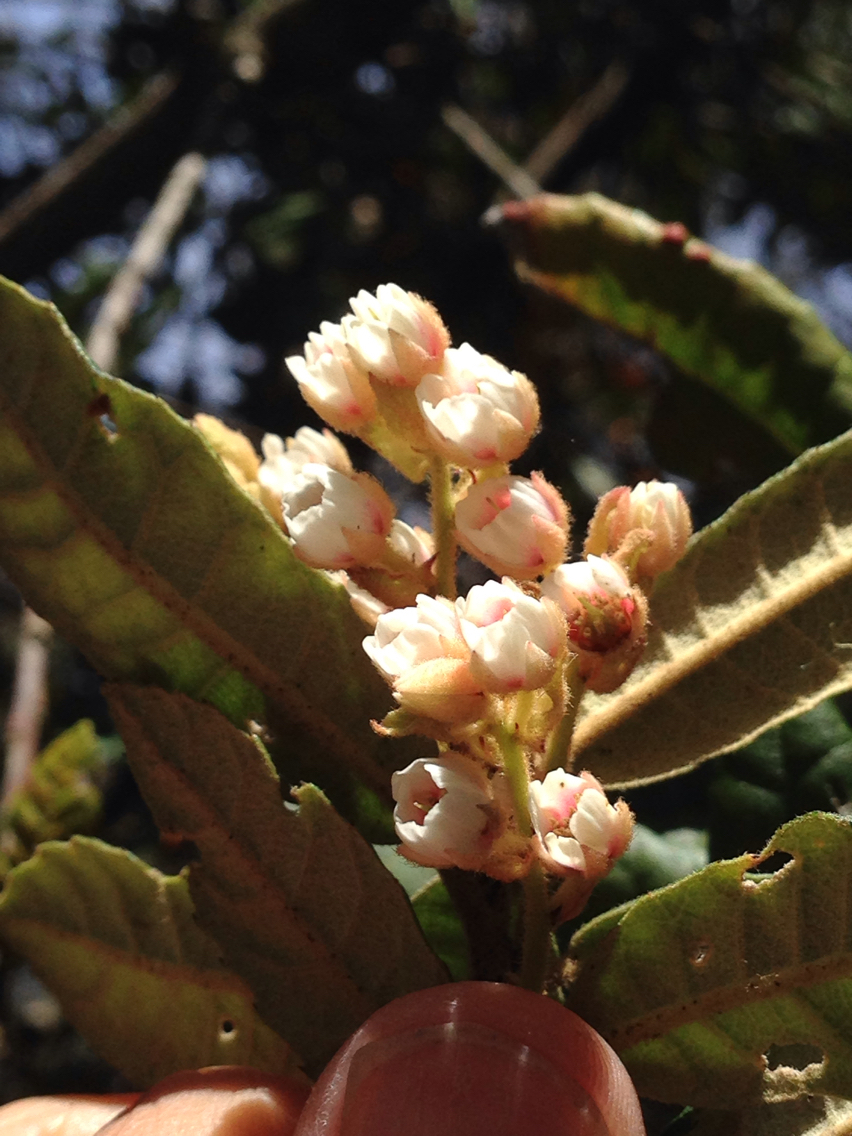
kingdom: Plantae
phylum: Tracheophyta
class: Magnoliopsida
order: Oxalidales
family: Elaeocarpaceae
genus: Elaeocarpus
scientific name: Elaeocarpus holopetalus
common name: Black olive berry
